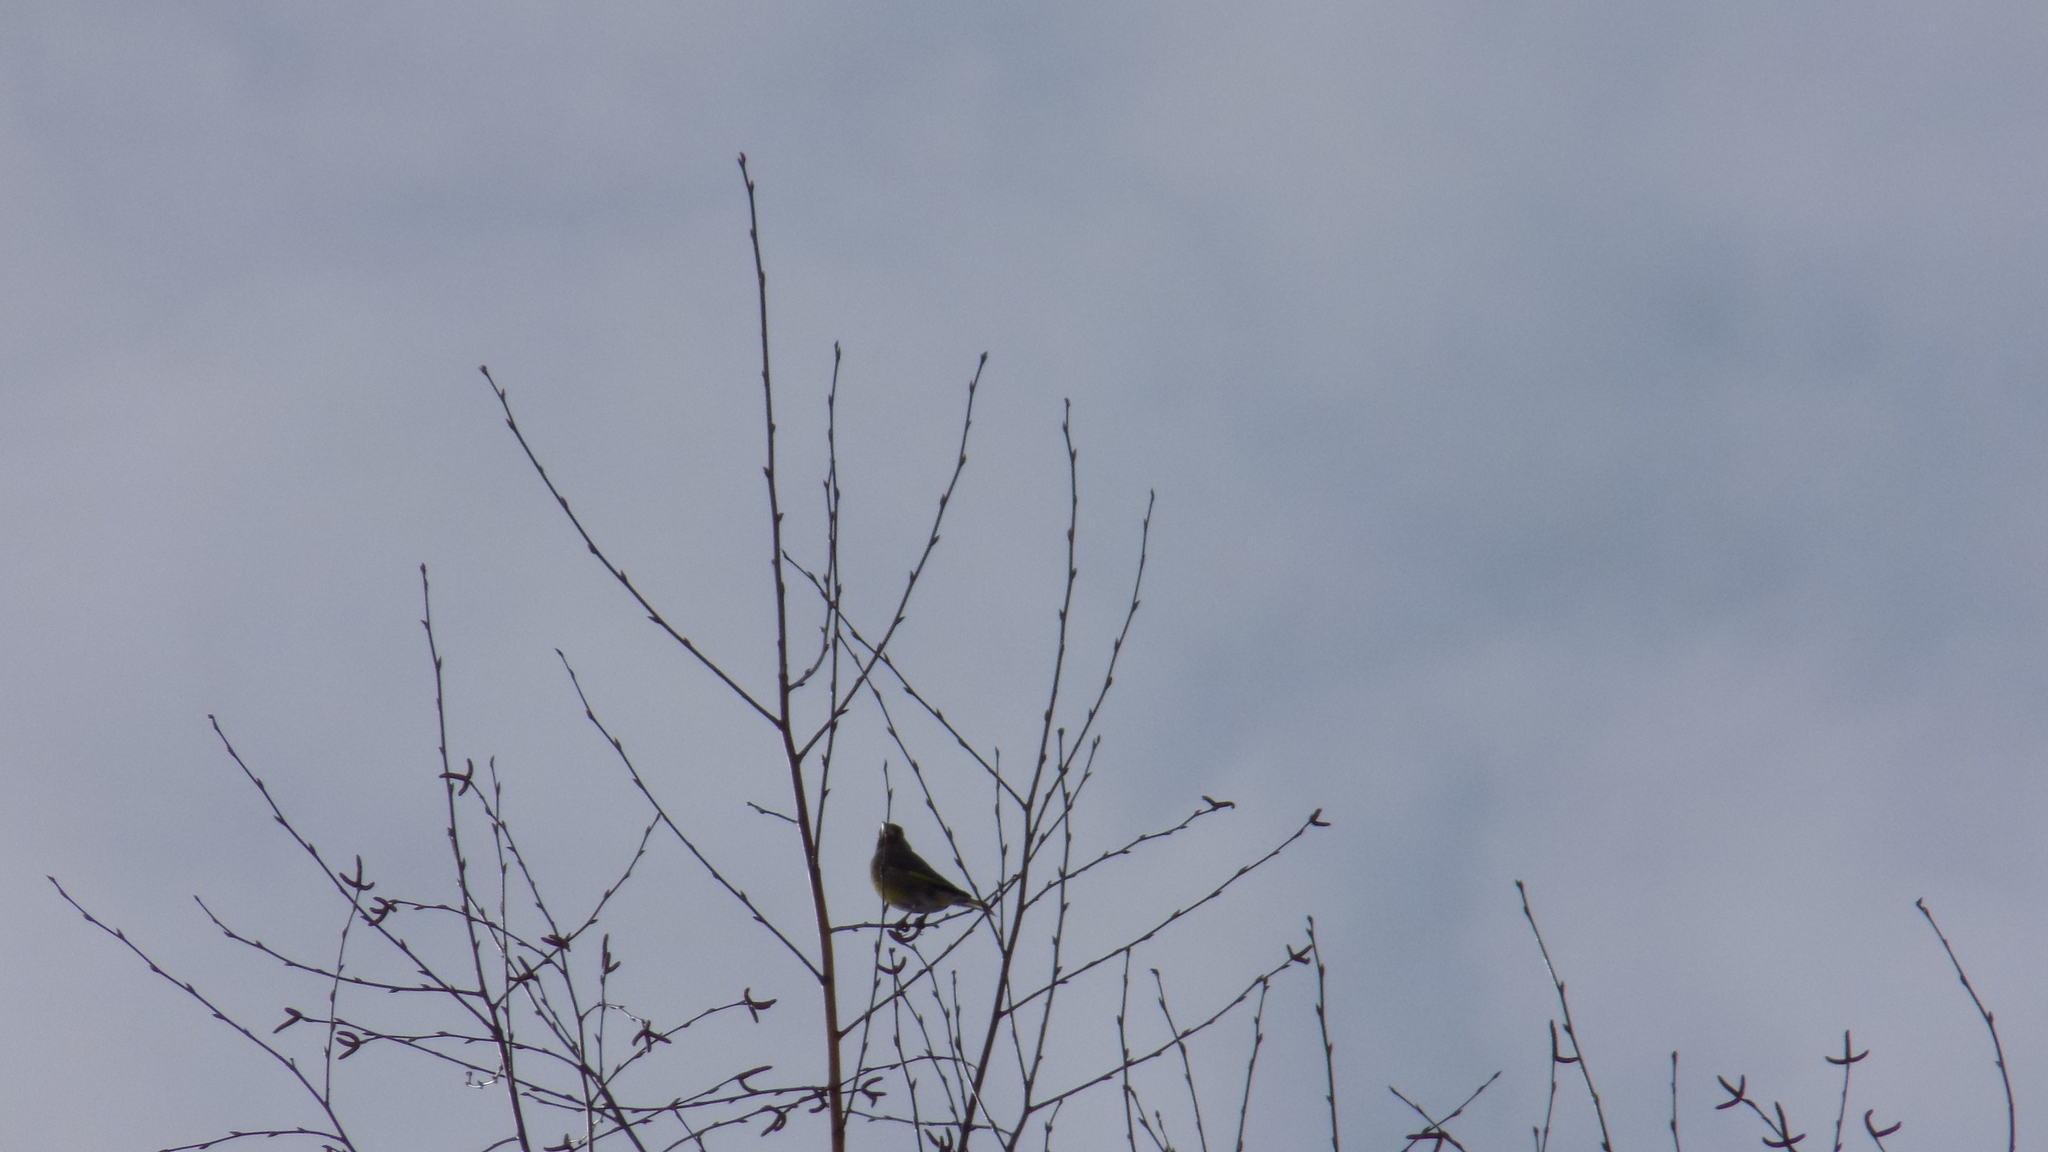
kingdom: Plantae
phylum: Tracheophyta
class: Liliopsida
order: Poales
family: Poaceae
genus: Chloris
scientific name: Chloris chloris
